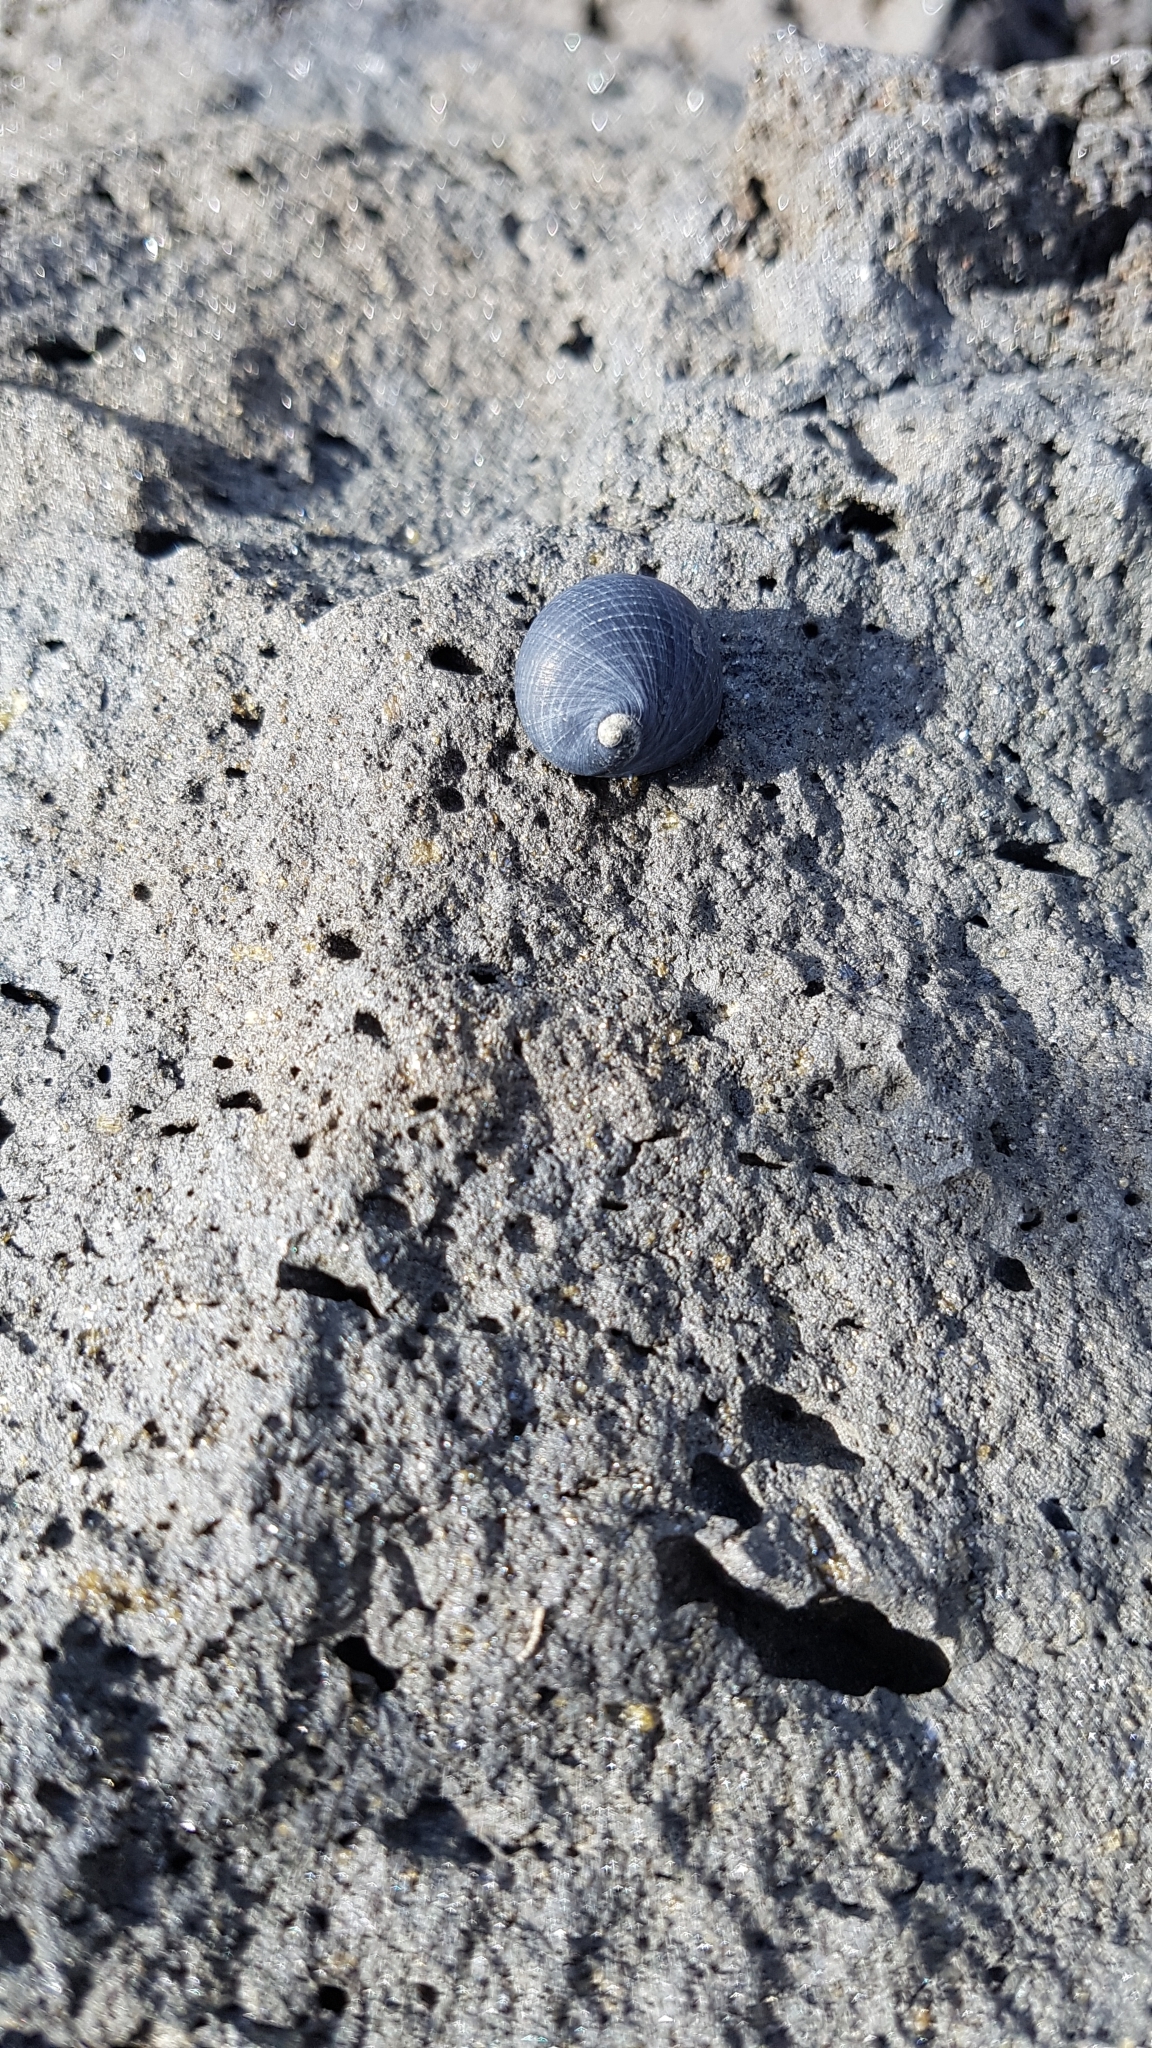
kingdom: Animalia
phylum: Mollusca
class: Gastropoda
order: Cycloneritida
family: Neritidae
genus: Nerita
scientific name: Nerita melanotragus
